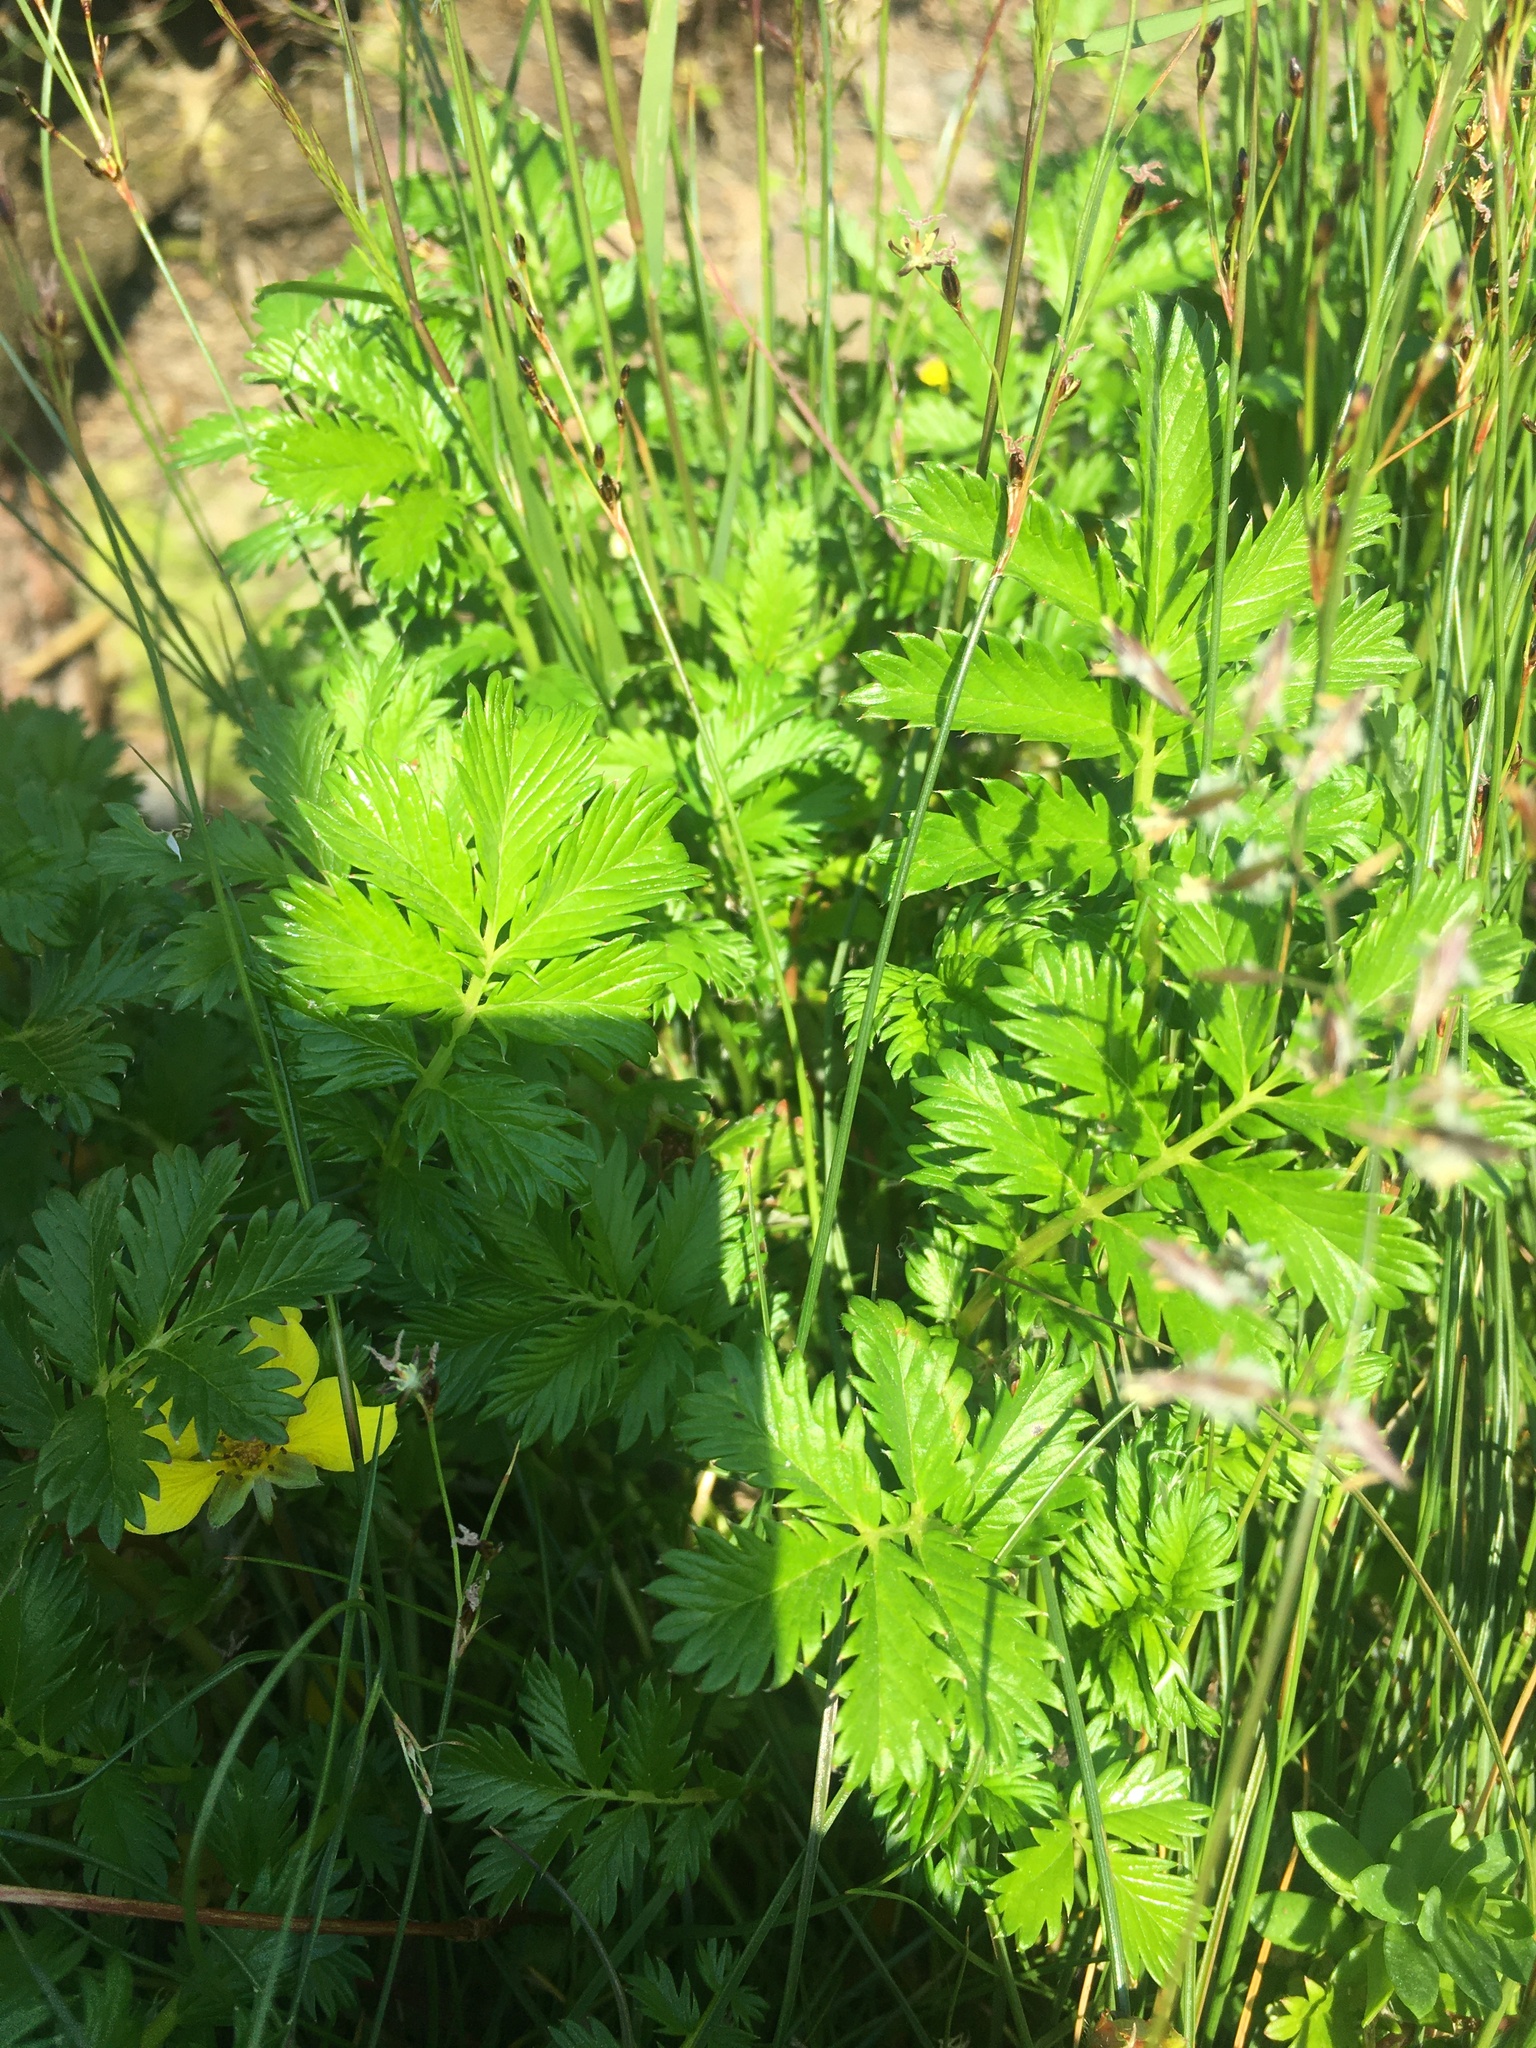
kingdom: Plantae
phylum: Tracheophyta
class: Magnoliopsida
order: Rosales
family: Rosaceae
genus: Argentina
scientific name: Argentina anserina
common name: Common silverweed
